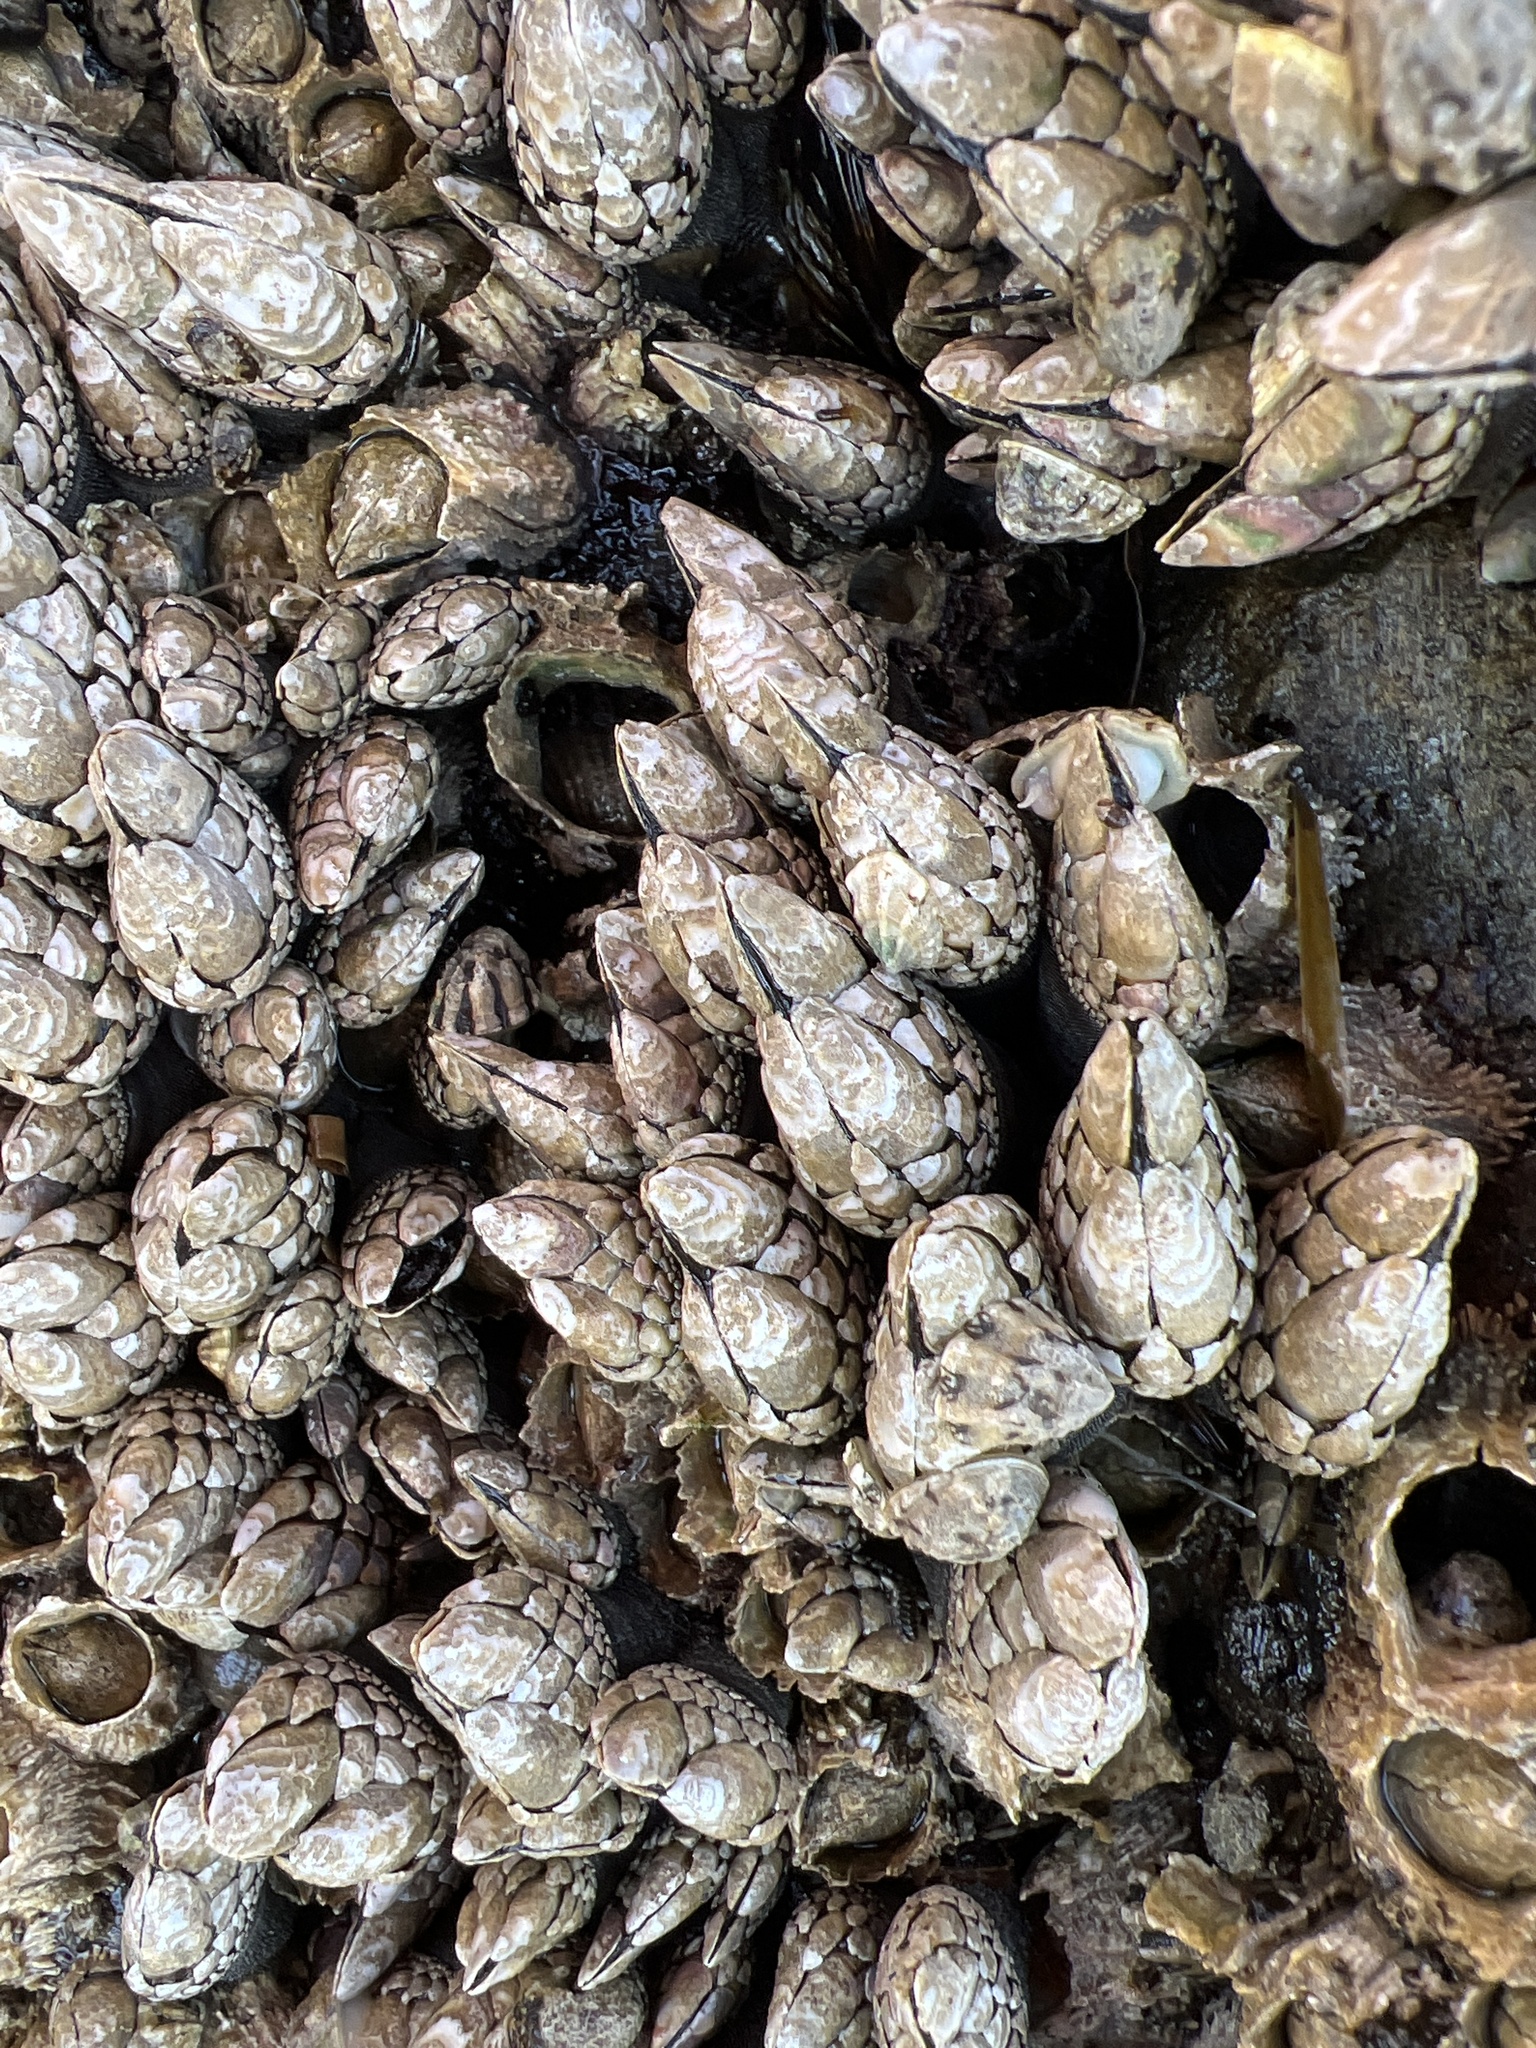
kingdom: Animalia
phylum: Arthropoda
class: Maxillopoda
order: Pedunculata
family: Pollicipedidae
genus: Pollicipes
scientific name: Pollicipes polymerus
